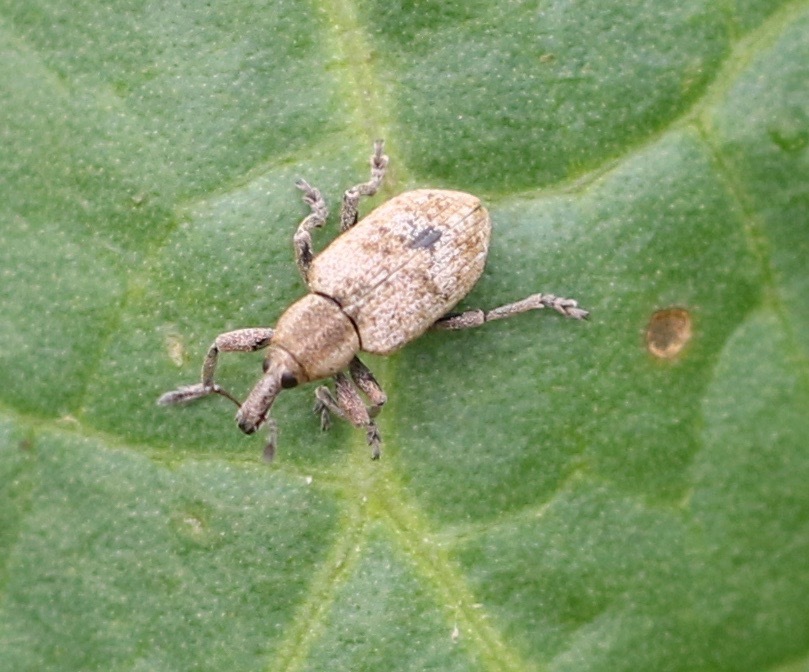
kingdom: Animalia
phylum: Arthropoda
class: Insecta
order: Coleoptera
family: Curculionidae
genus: Hypera
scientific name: Hypera rumicis
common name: Weevil
